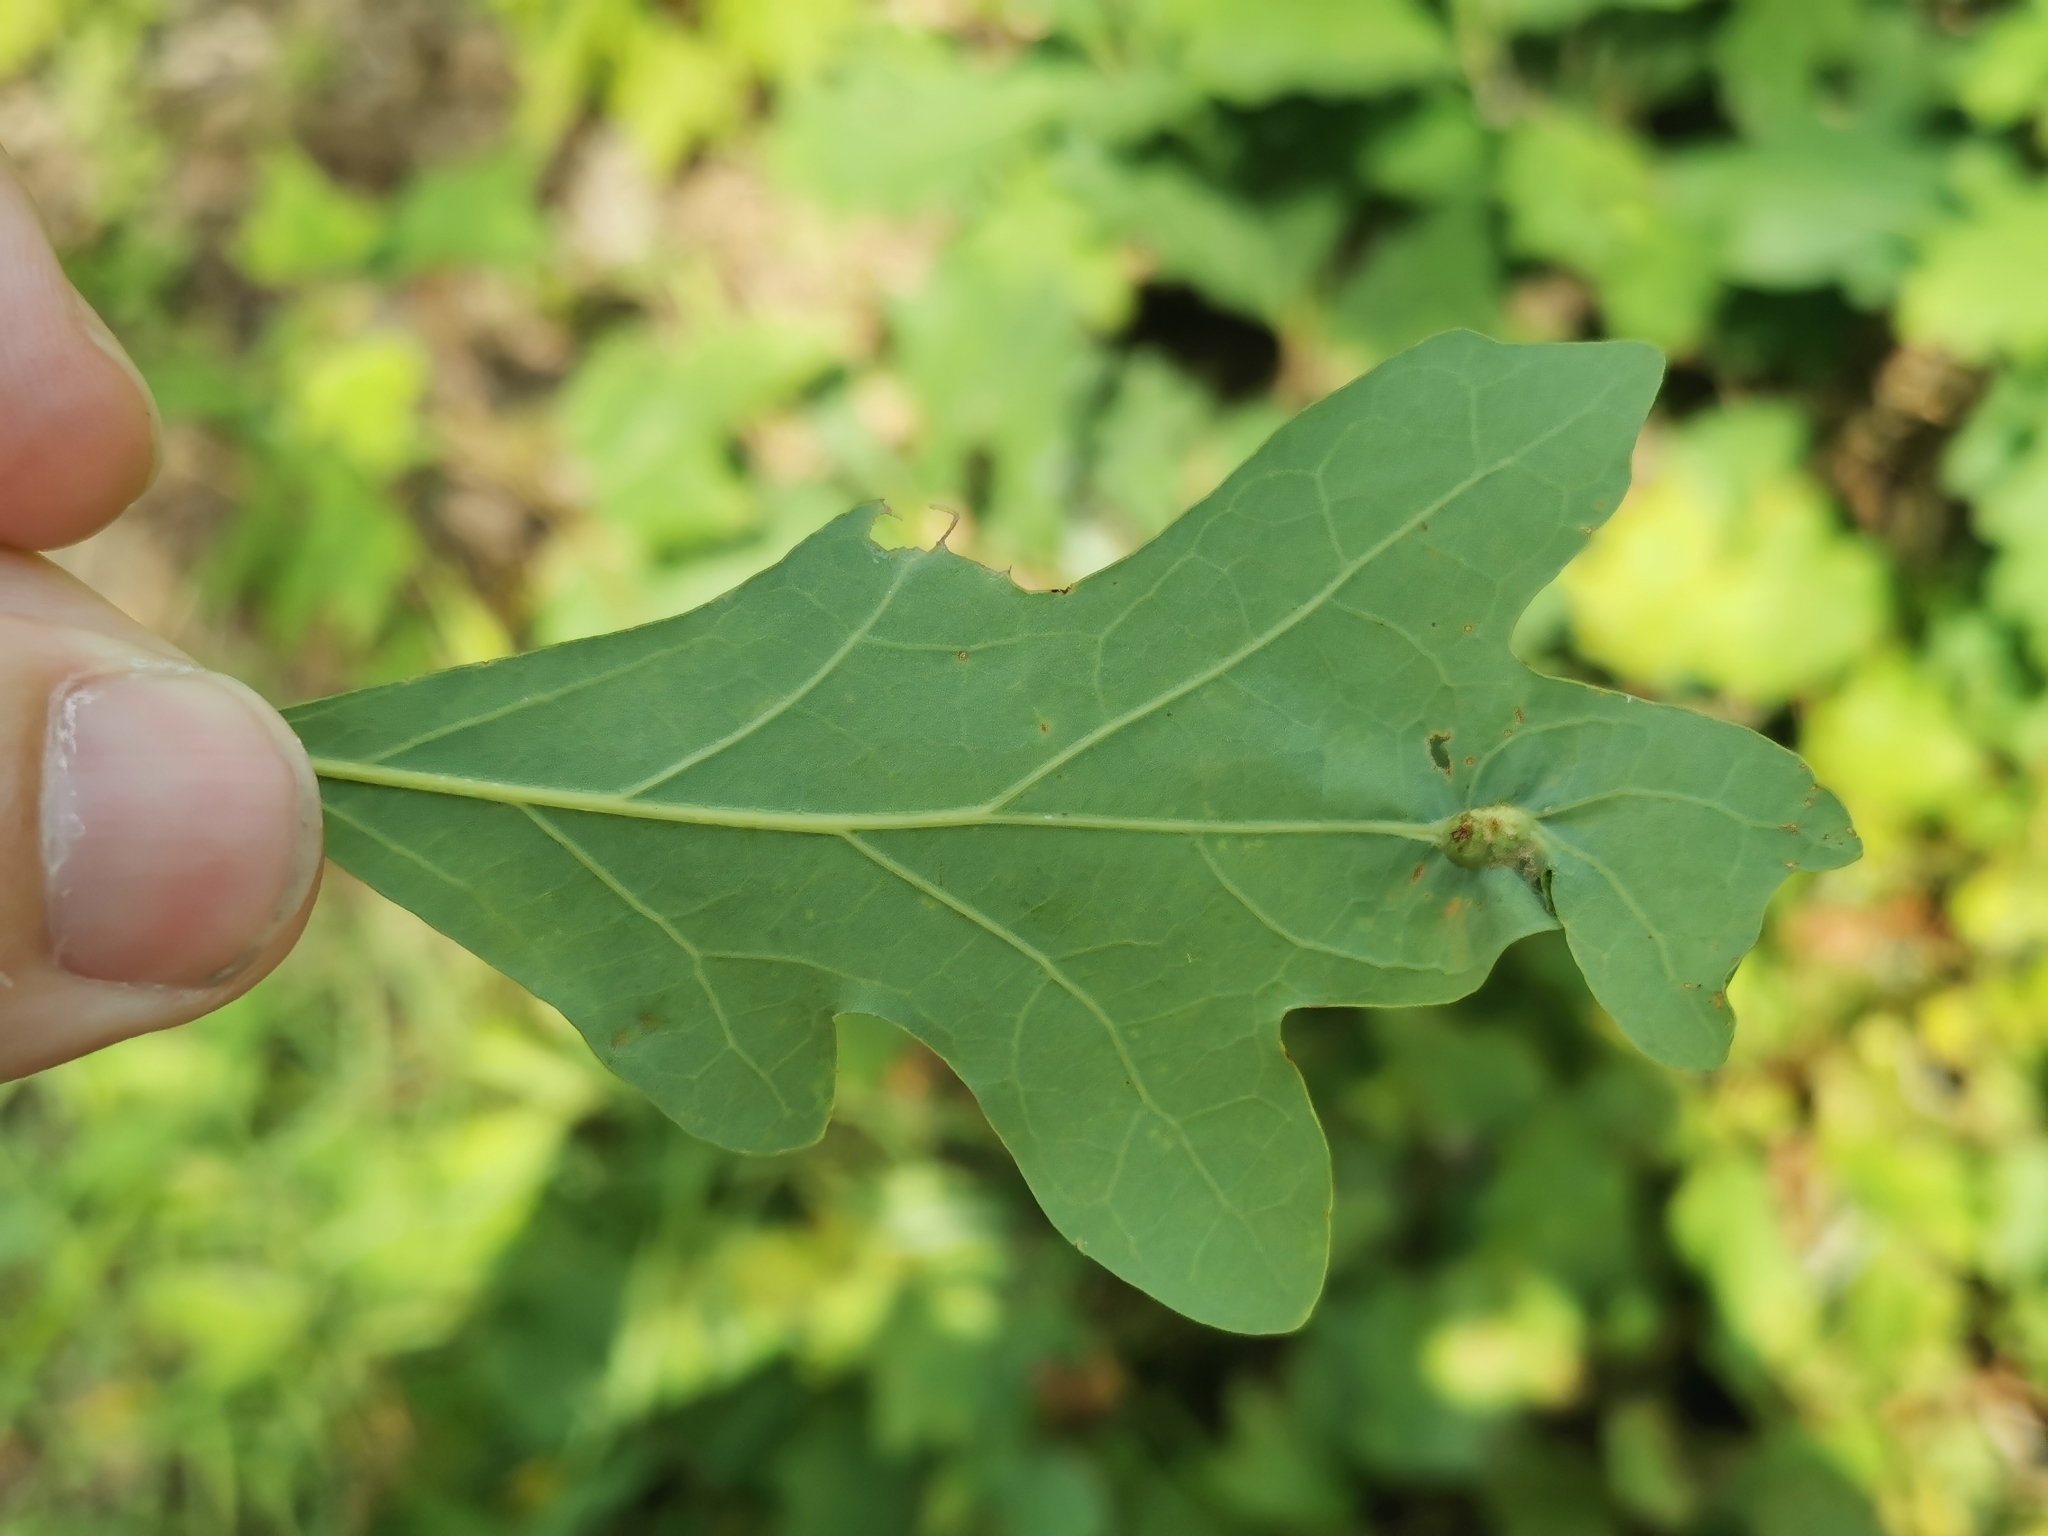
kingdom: Animalia
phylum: Arthropoda
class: Insecta
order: Hymenoptera
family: Cynipidae
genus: Andricus
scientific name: Andricus
